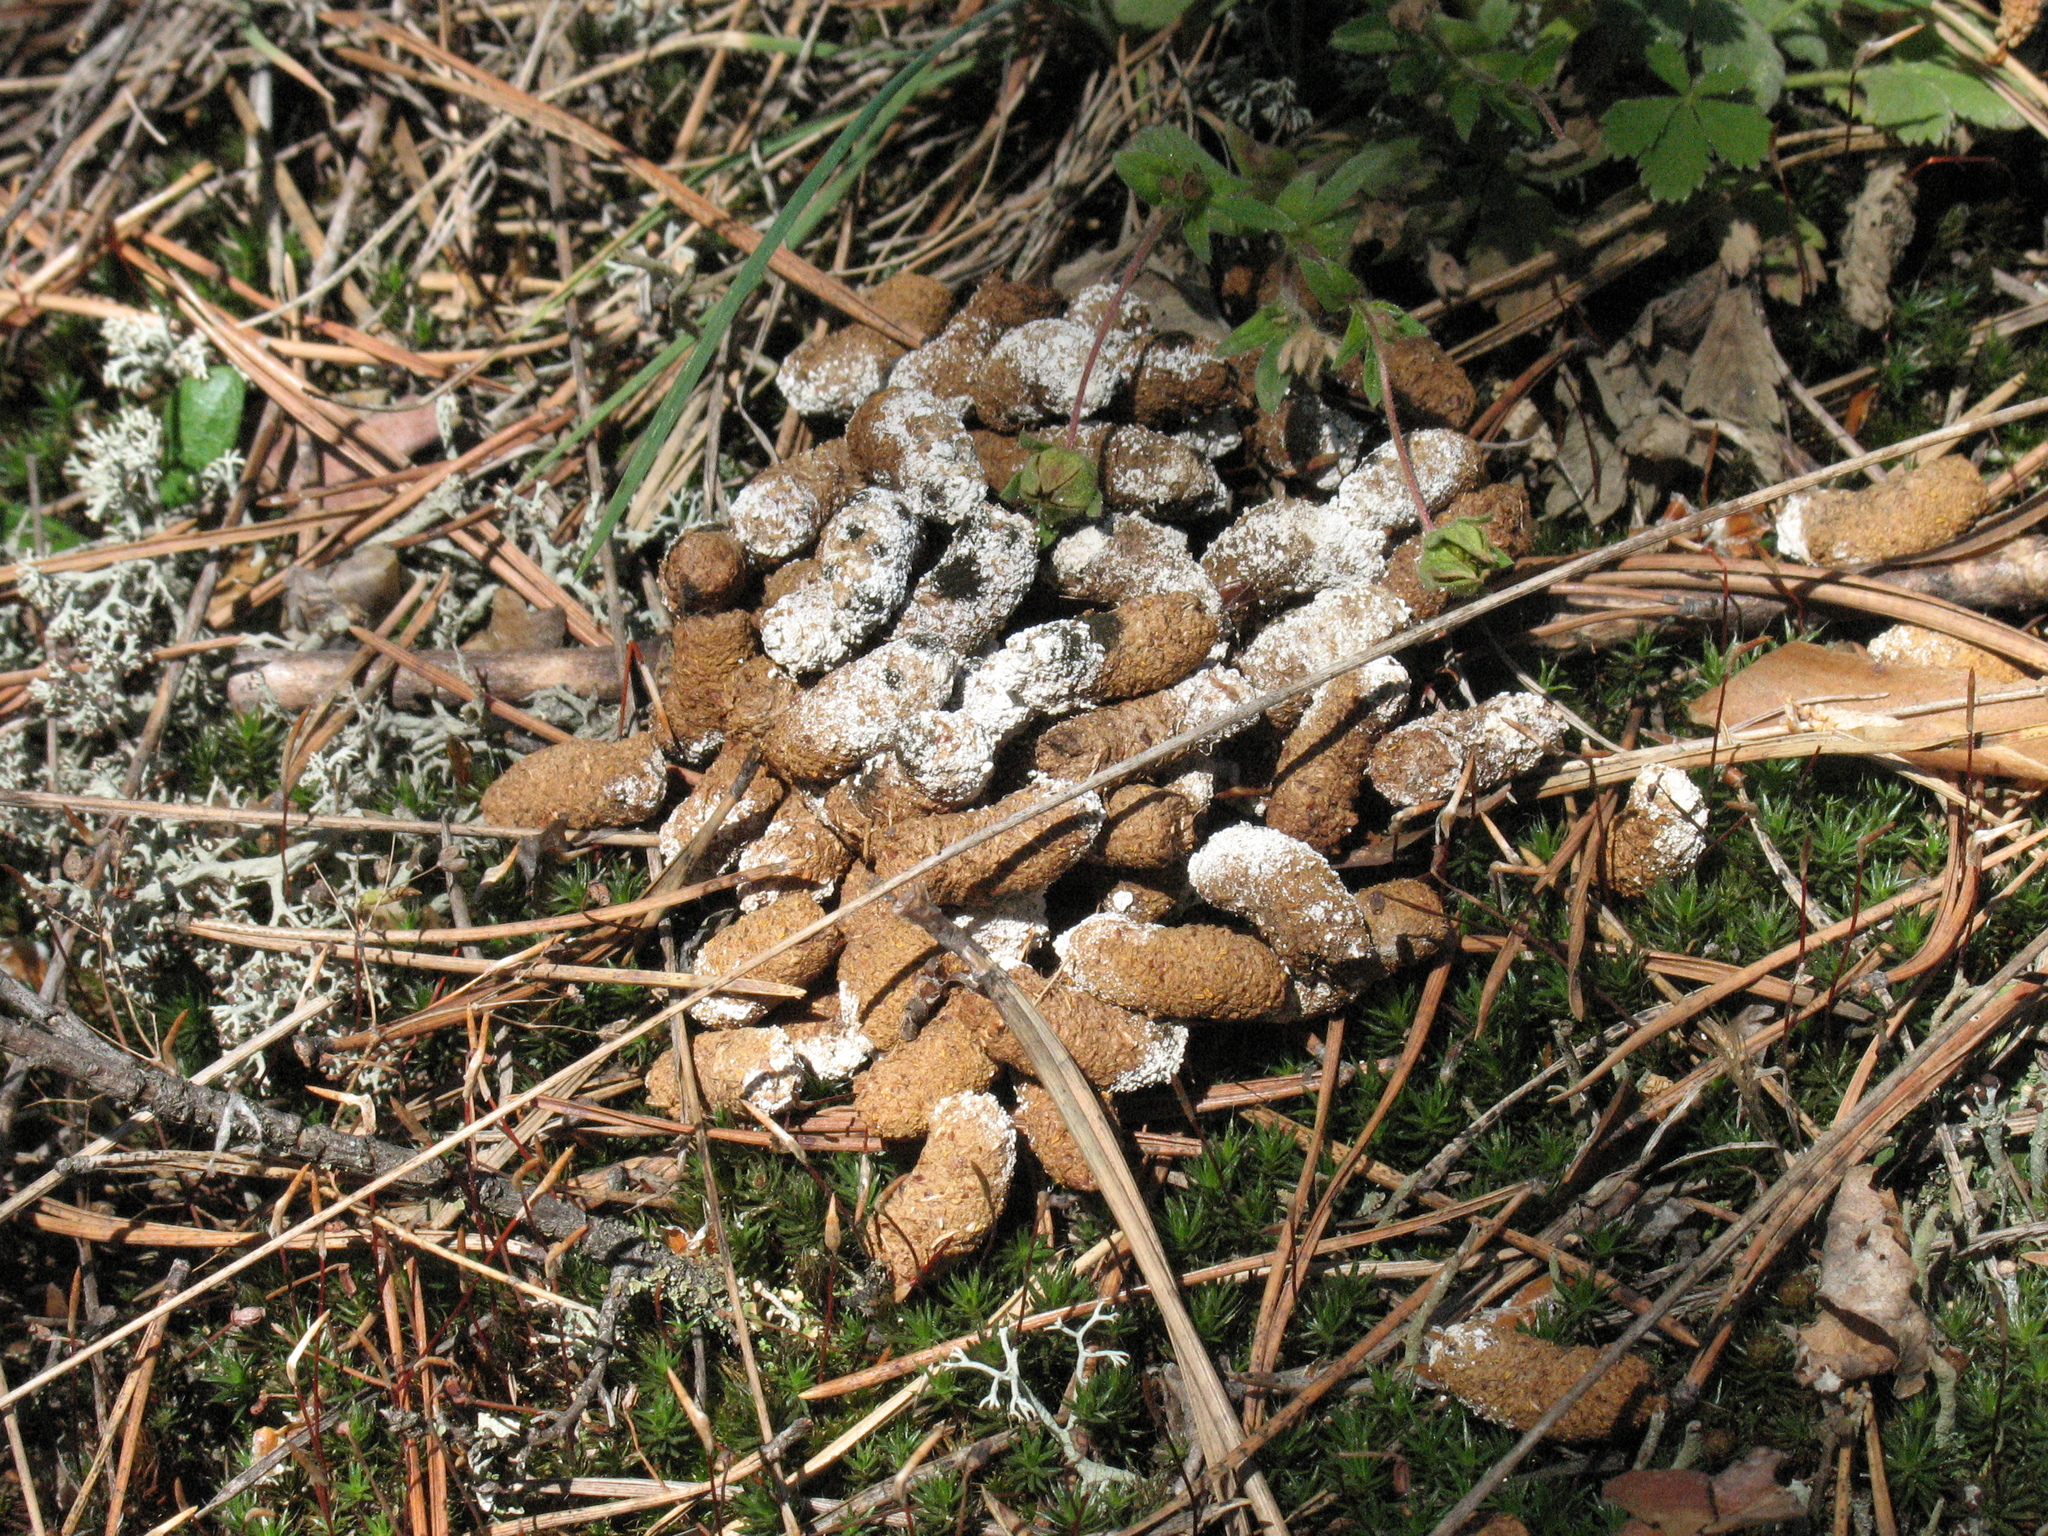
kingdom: Animalia
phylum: Chordata
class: Aves
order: Galliformes
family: Phasianidae
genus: Tetrastes
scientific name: Tetrastes bonasia
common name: Hazel grouse
